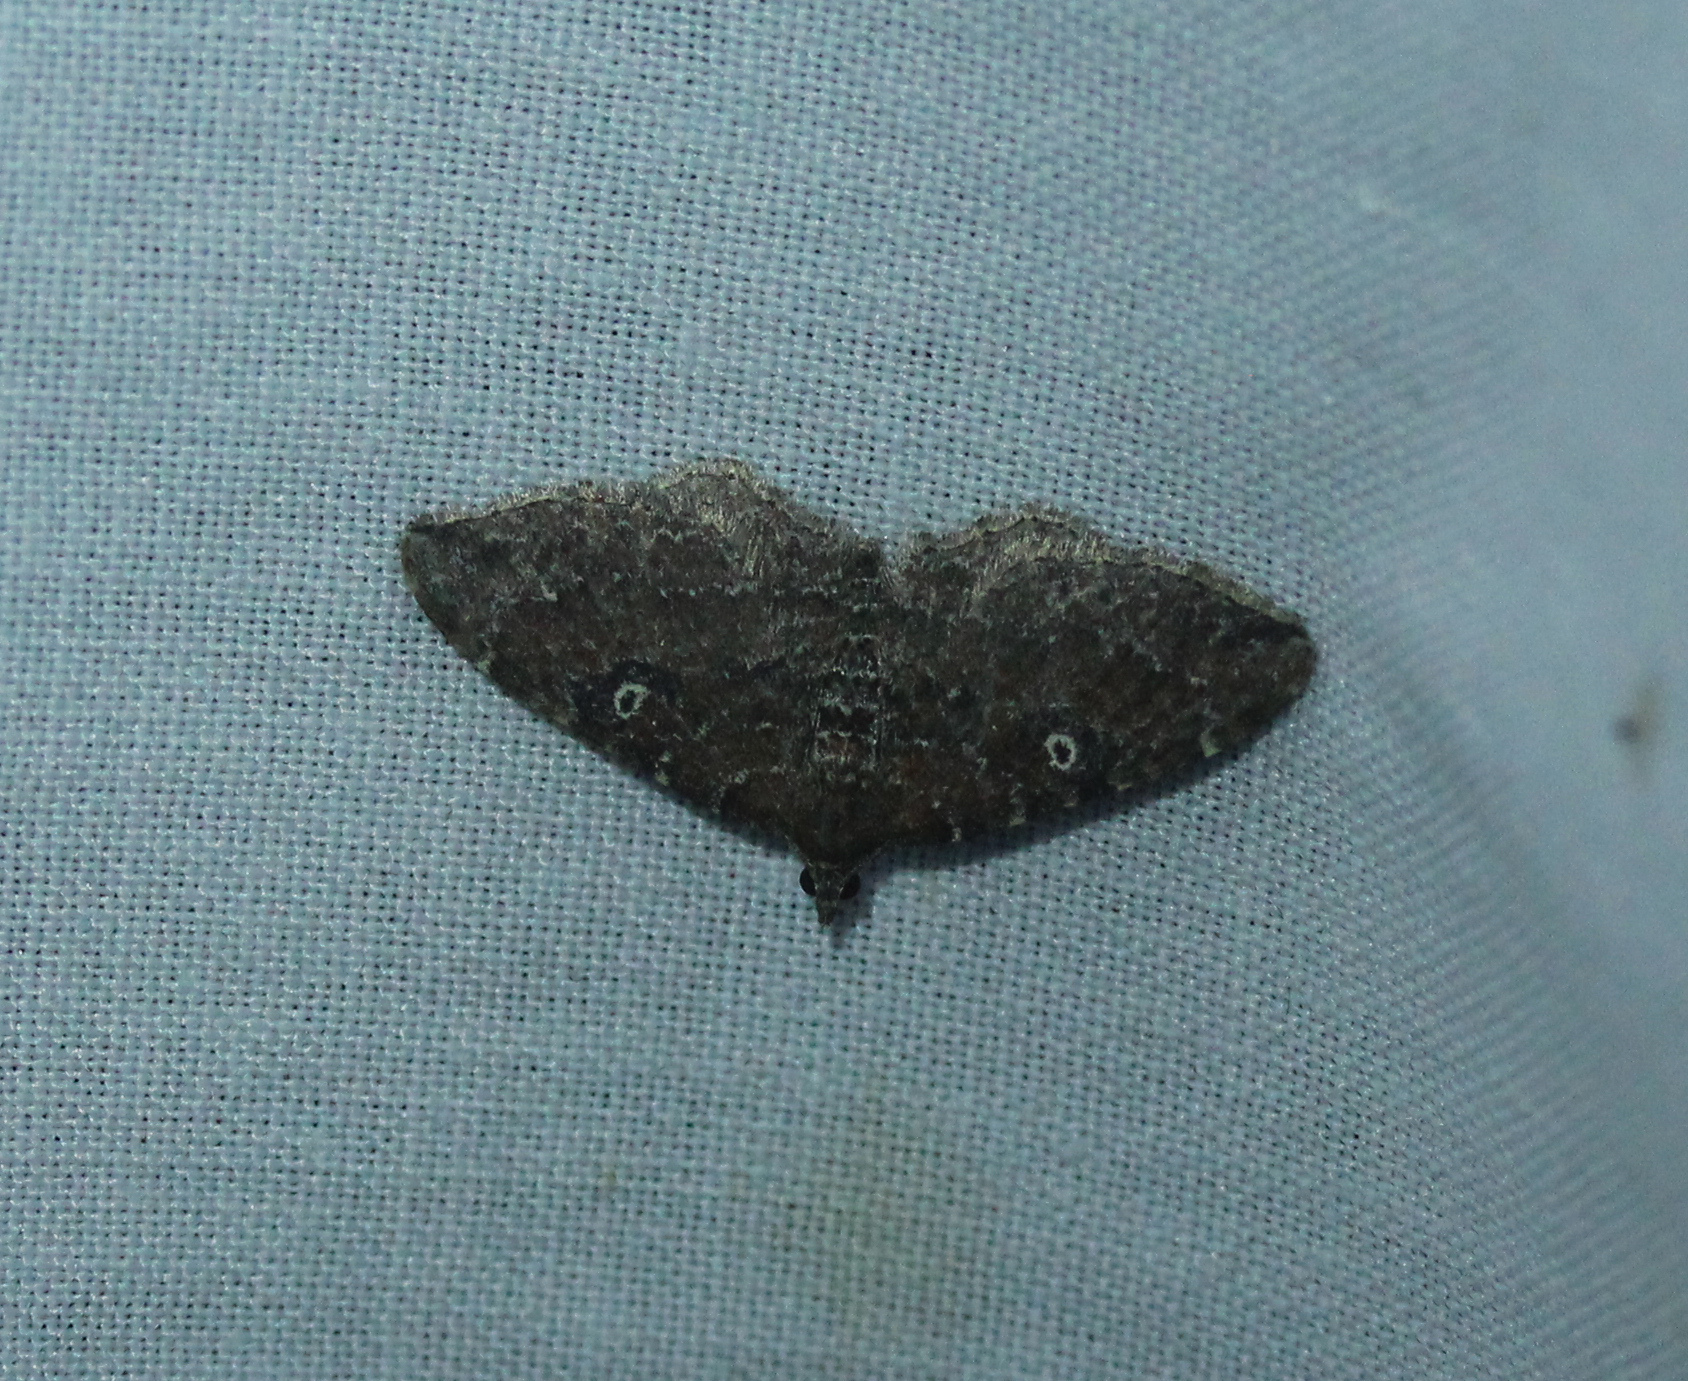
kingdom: Animalia
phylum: Arthropoda
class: Insecta
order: Lepidoptera
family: Geometridae
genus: Orthonama
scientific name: Orthonama obstipata
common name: The gem
